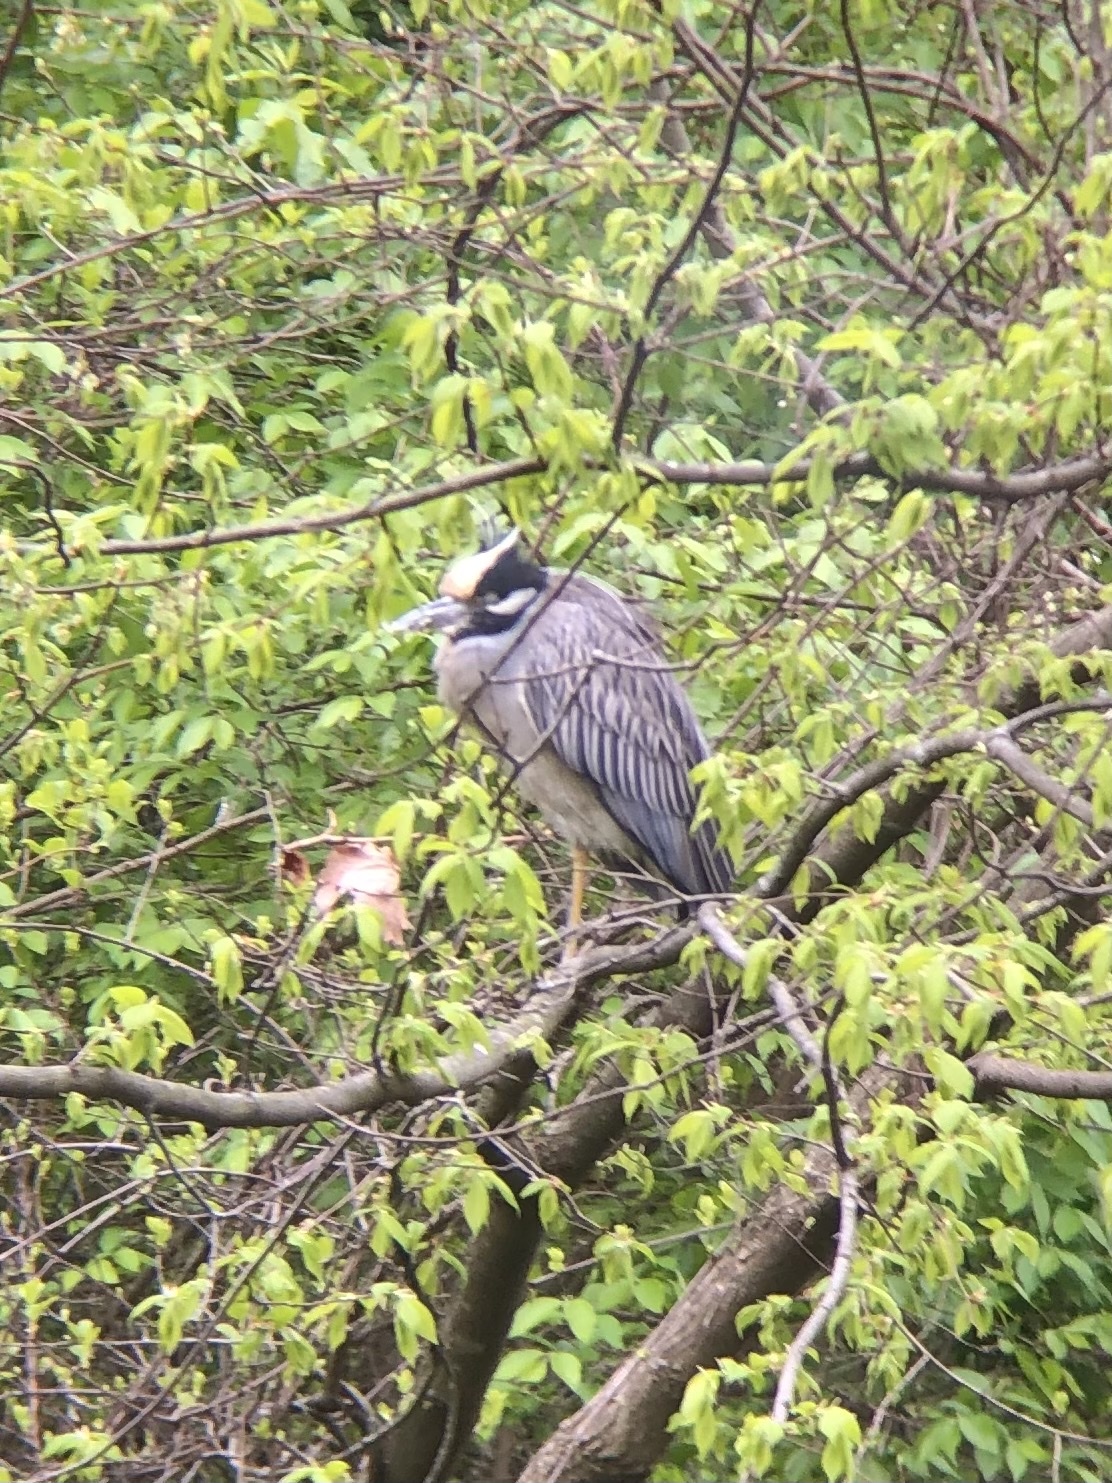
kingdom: Animalia
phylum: Chordata
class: Aves
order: Pelecaniformes
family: Ardeidae
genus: Nyctanassa
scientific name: Nyctanassa violacea
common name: Yellow-crowned night heron
